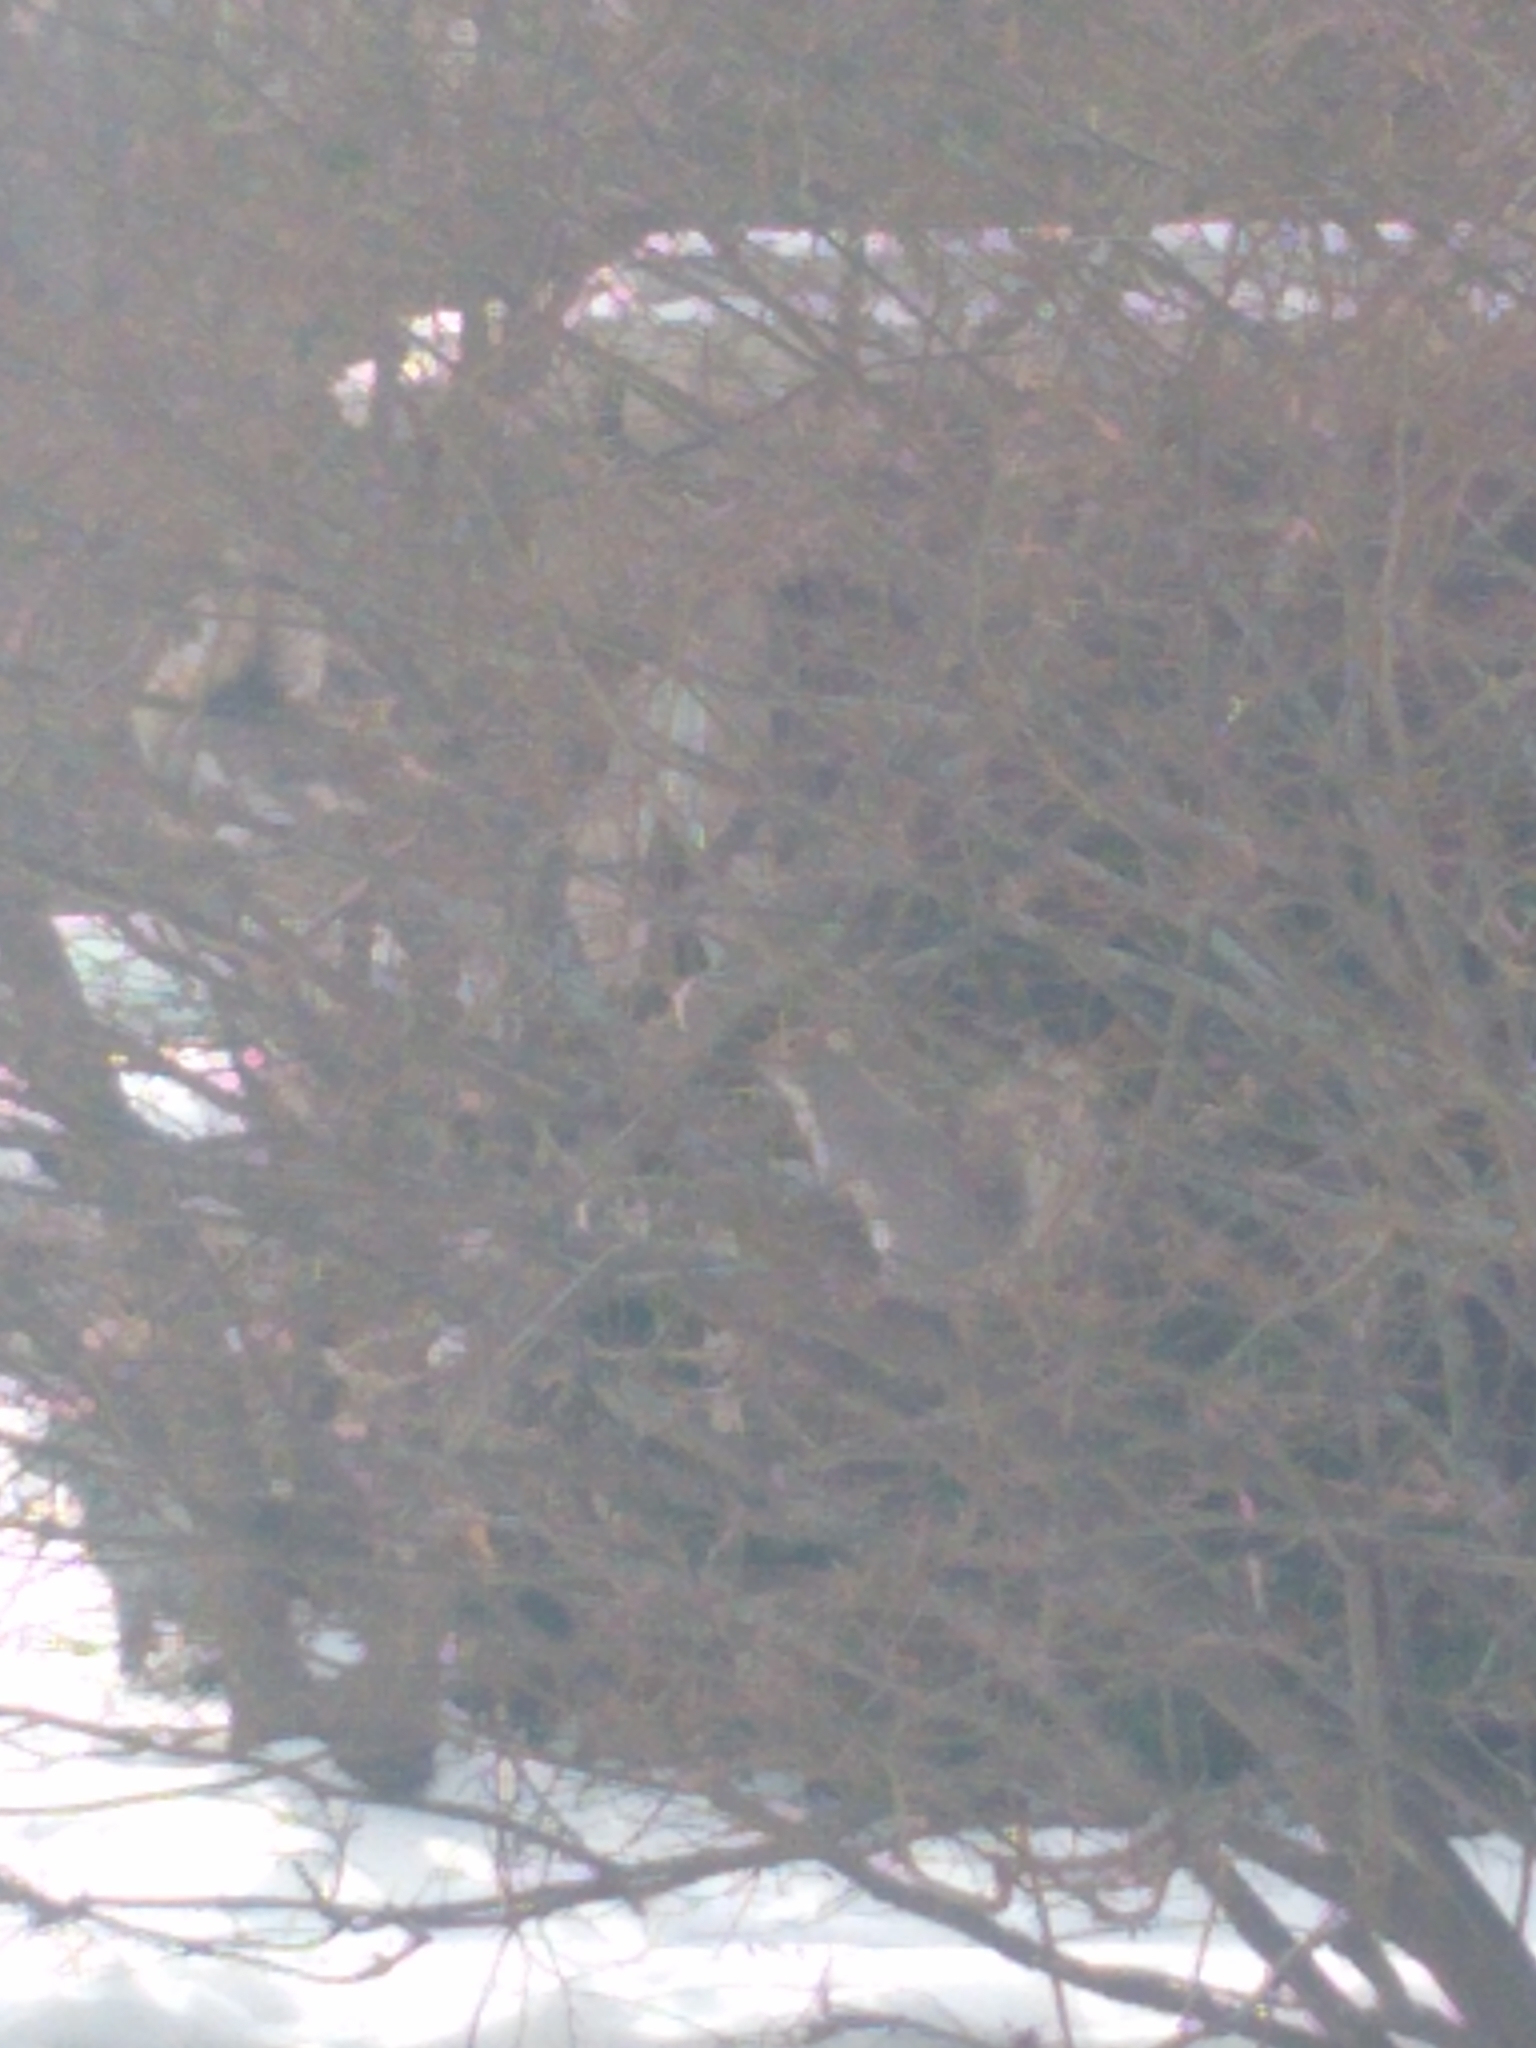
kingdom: Animalia
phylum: Chordata
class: Mammalia
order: Rodentia
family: Sciuridae
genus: Sciurus
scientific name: Sciurus carolinensis
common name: Eastern gray squirrel
